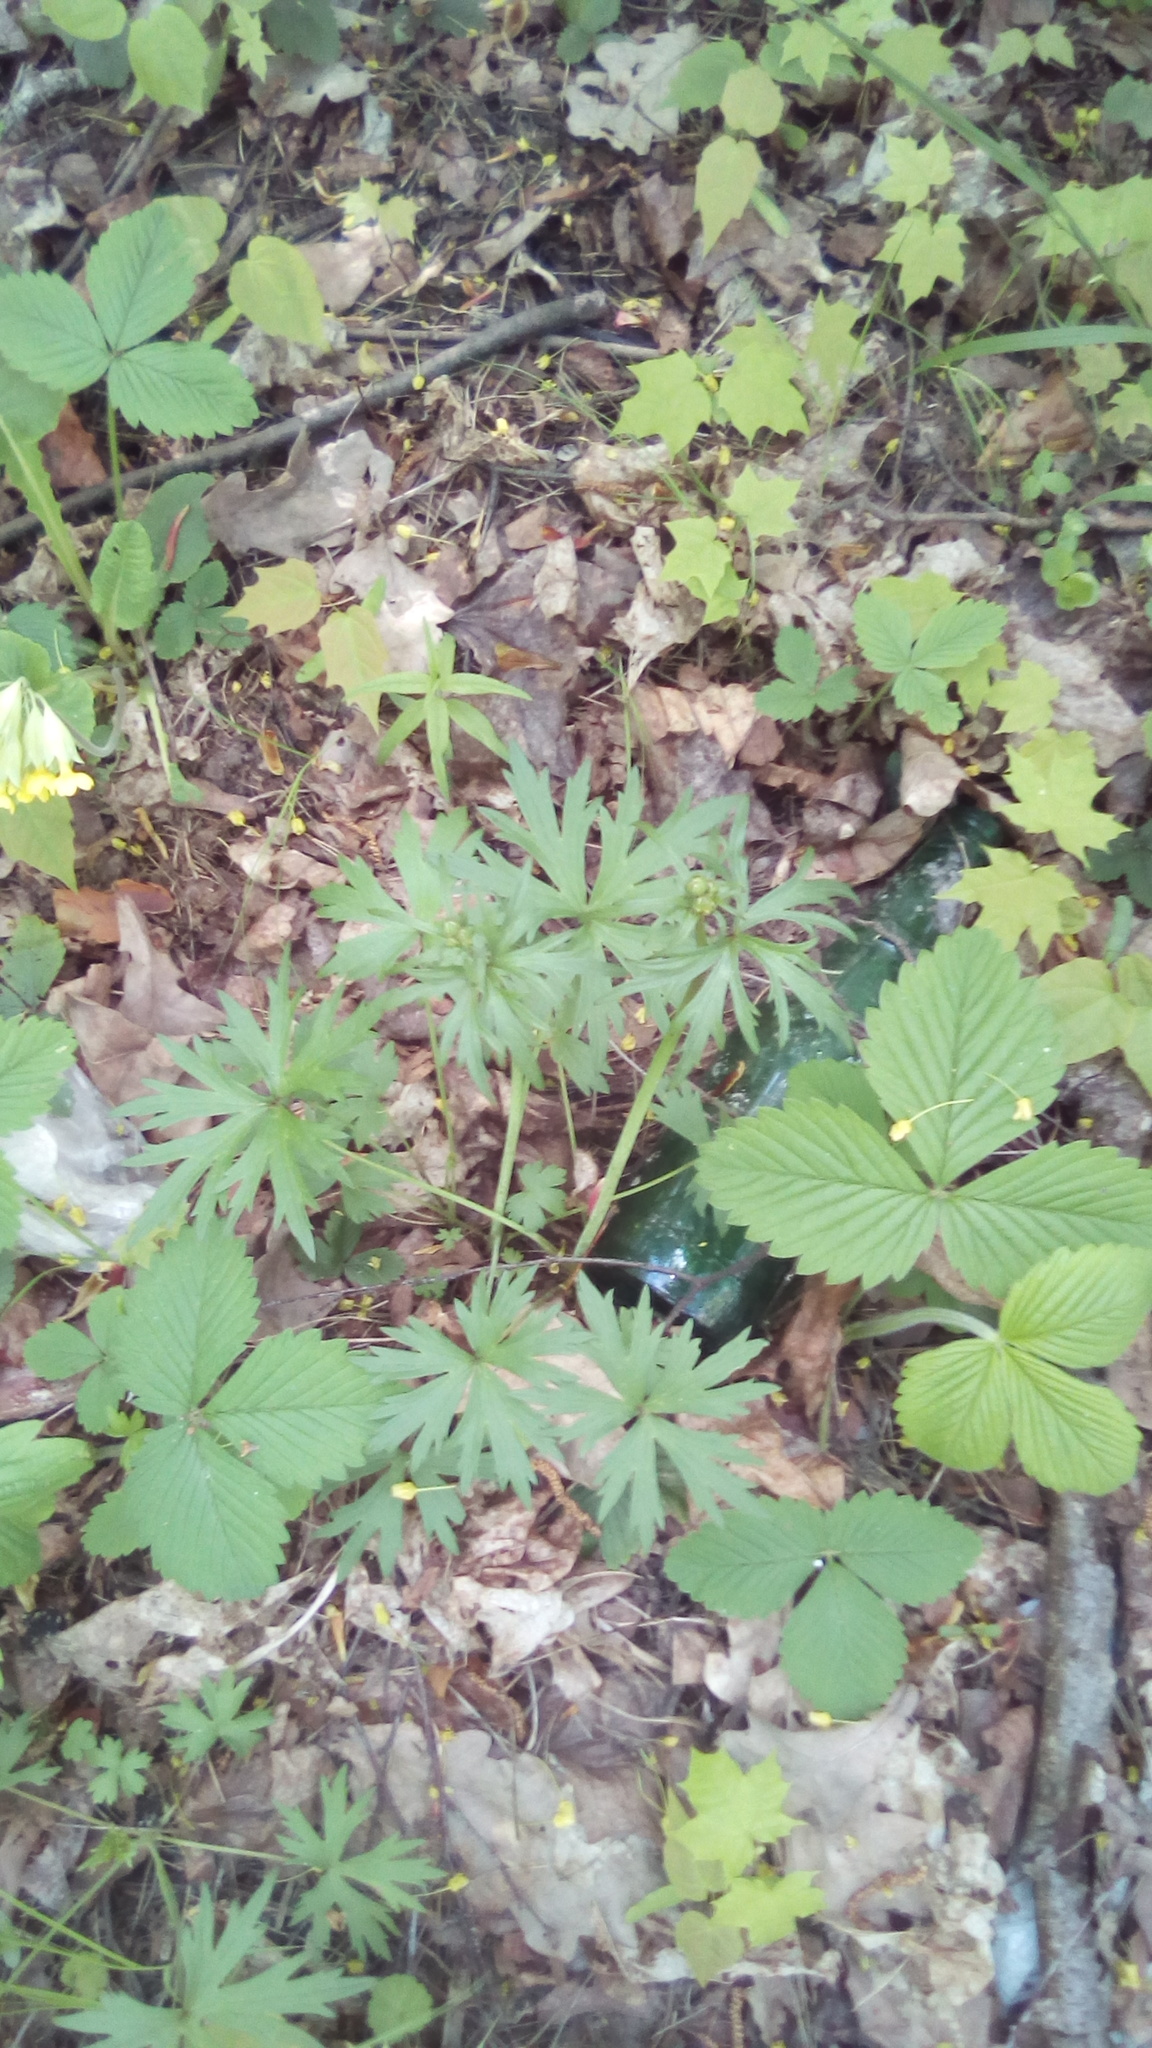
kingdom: Plantae
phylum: Tracheophyta
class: Magnoliopsida
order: Ranunculales
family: Ranunculaceae
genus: Ranunculus
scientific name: Ranunculus acris
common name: Meadow buttercup
